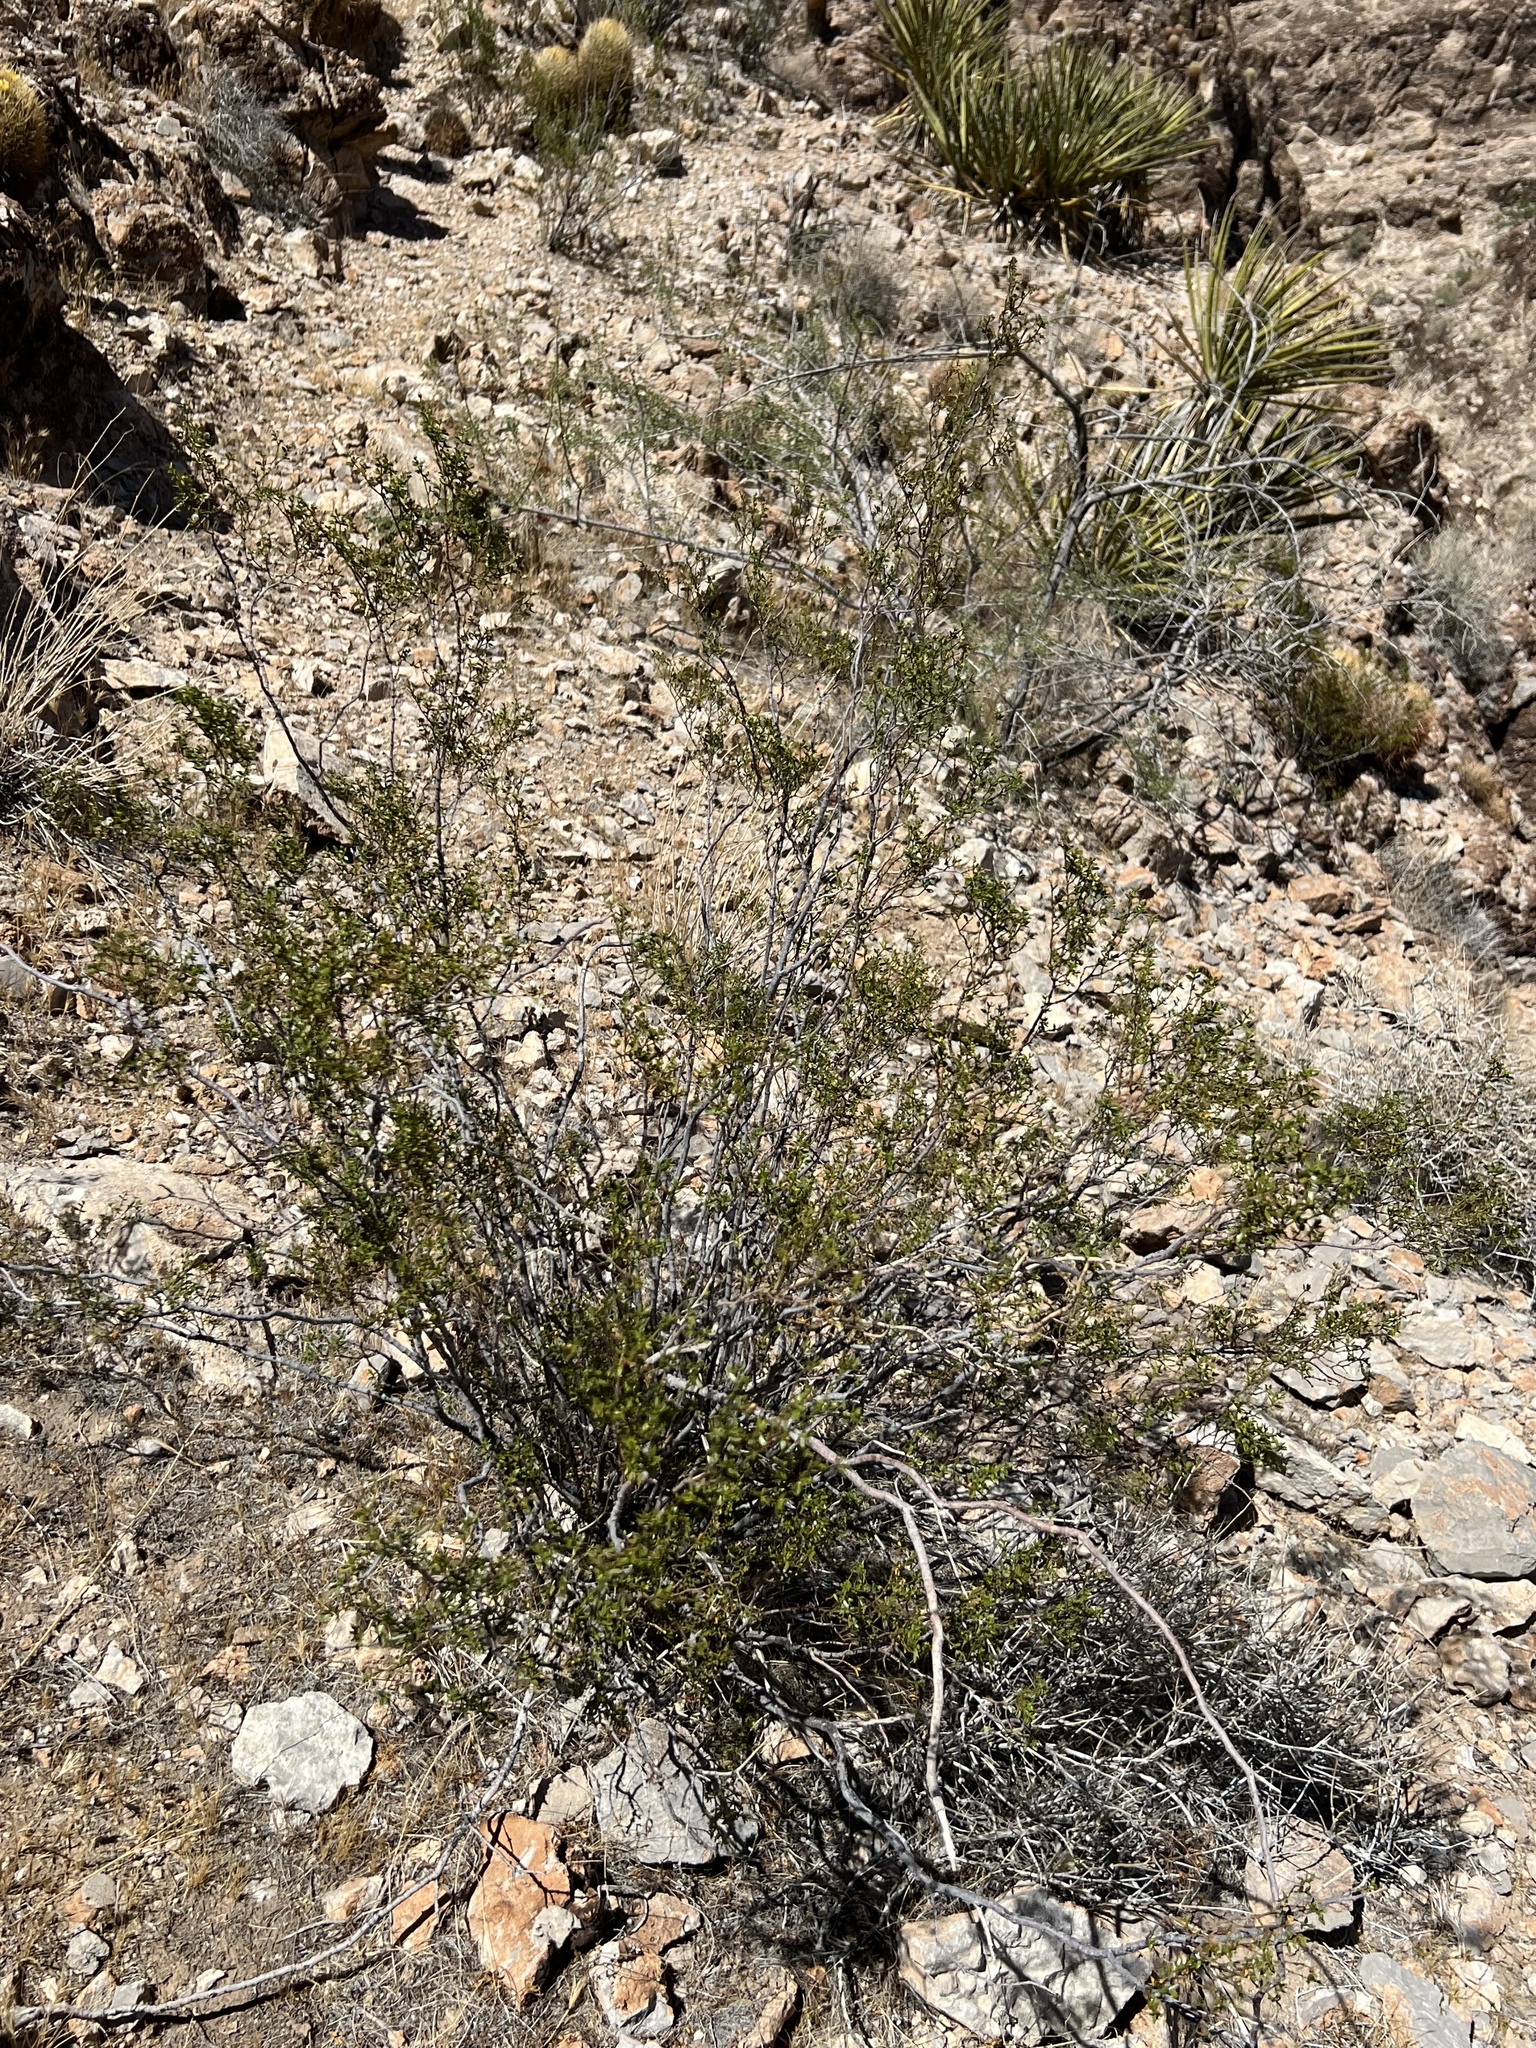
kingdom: Plantae
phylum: Tracheophyta
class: Magnoliopsida
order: Zygophyllales
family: Zygophyllaceae
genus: Larrea
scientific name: Larrea tridentata
